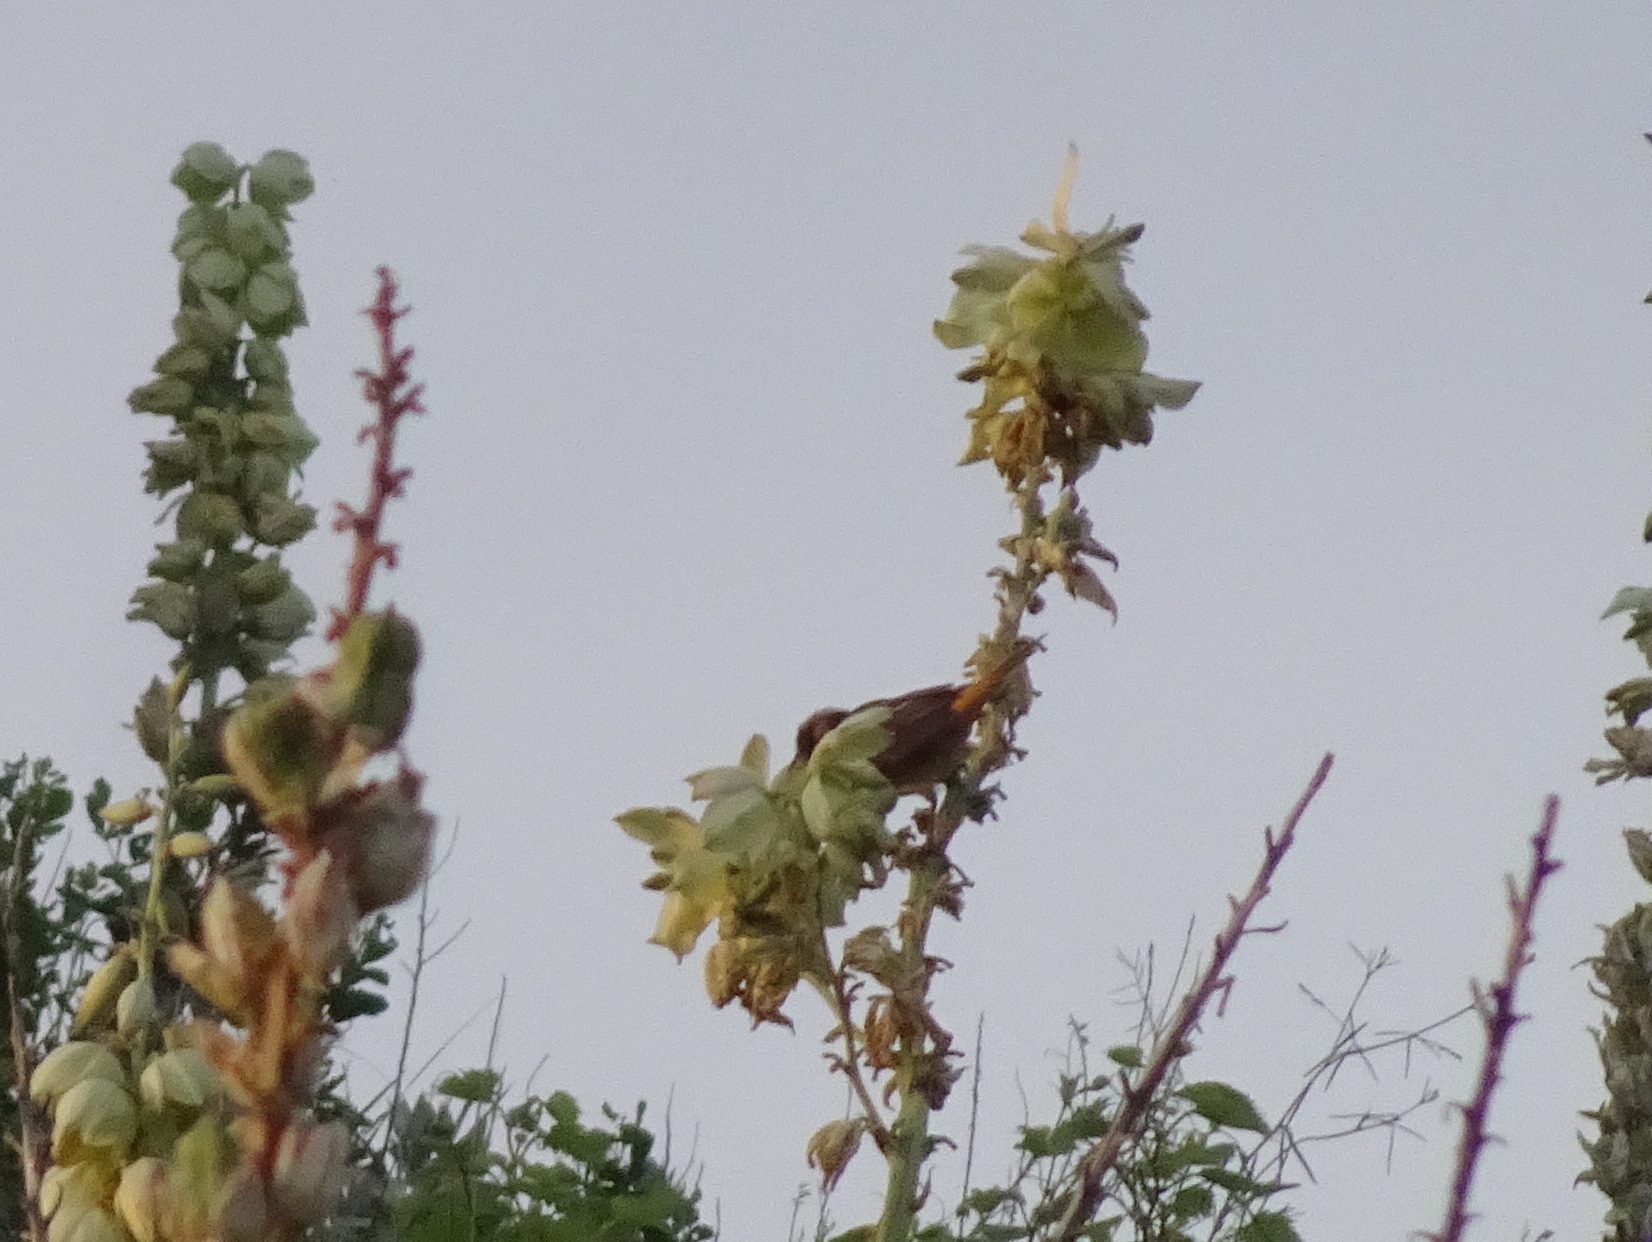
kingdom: Animalia
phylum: Chordata
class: Aves
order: Passeriformes
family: Icteridae
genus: Icterus
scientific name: Icterus galbula
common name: Baltimore oriole
